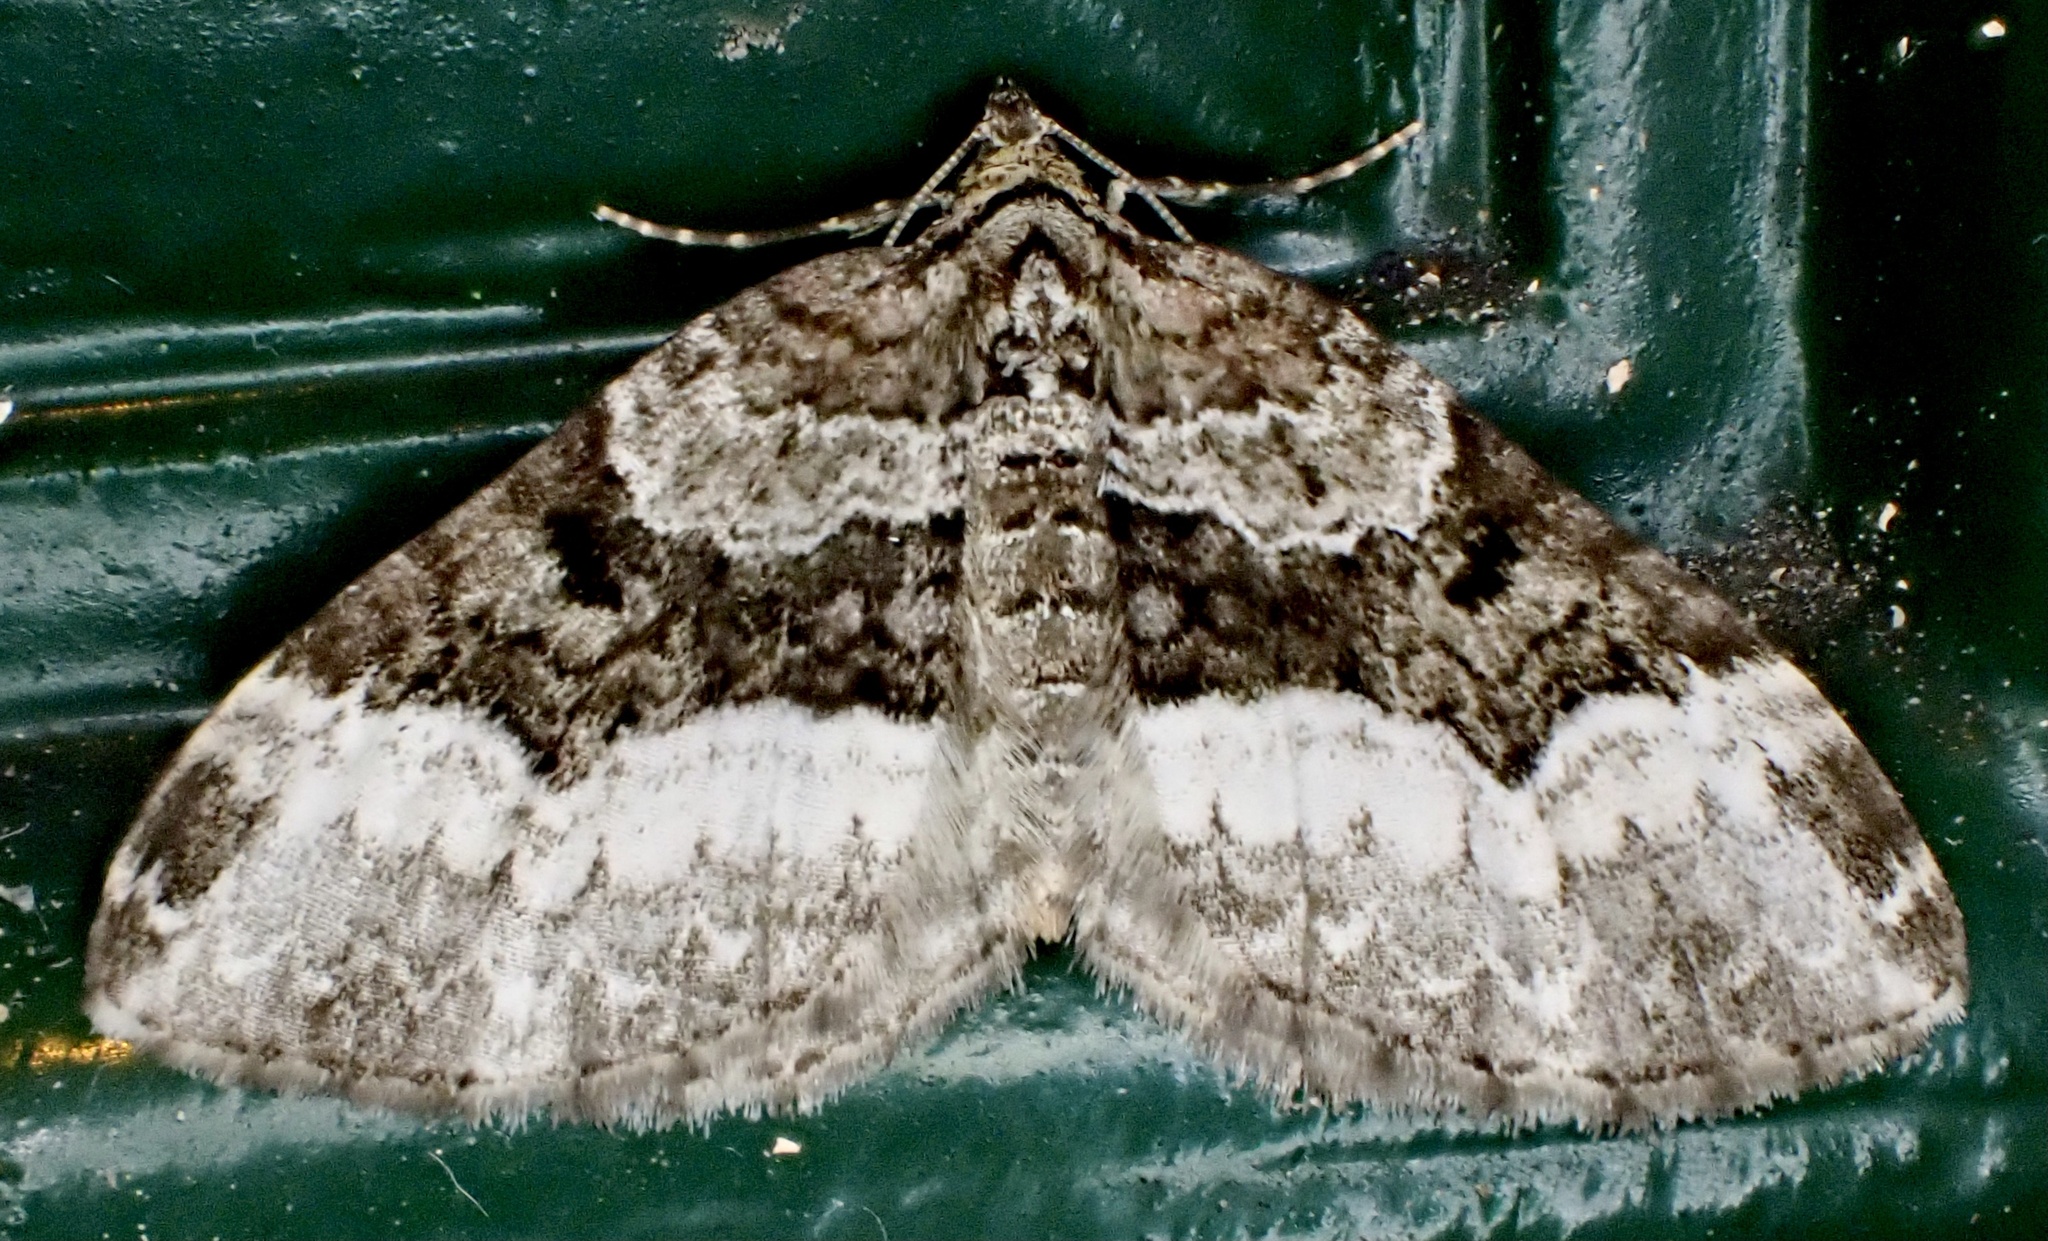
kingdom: Animalia
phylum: Arthropoda
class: Insecta
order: Lepidoptera
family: Geometridae
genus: Euphyia
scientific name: Euphyia intermediata
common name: Sharp-angled carpet
